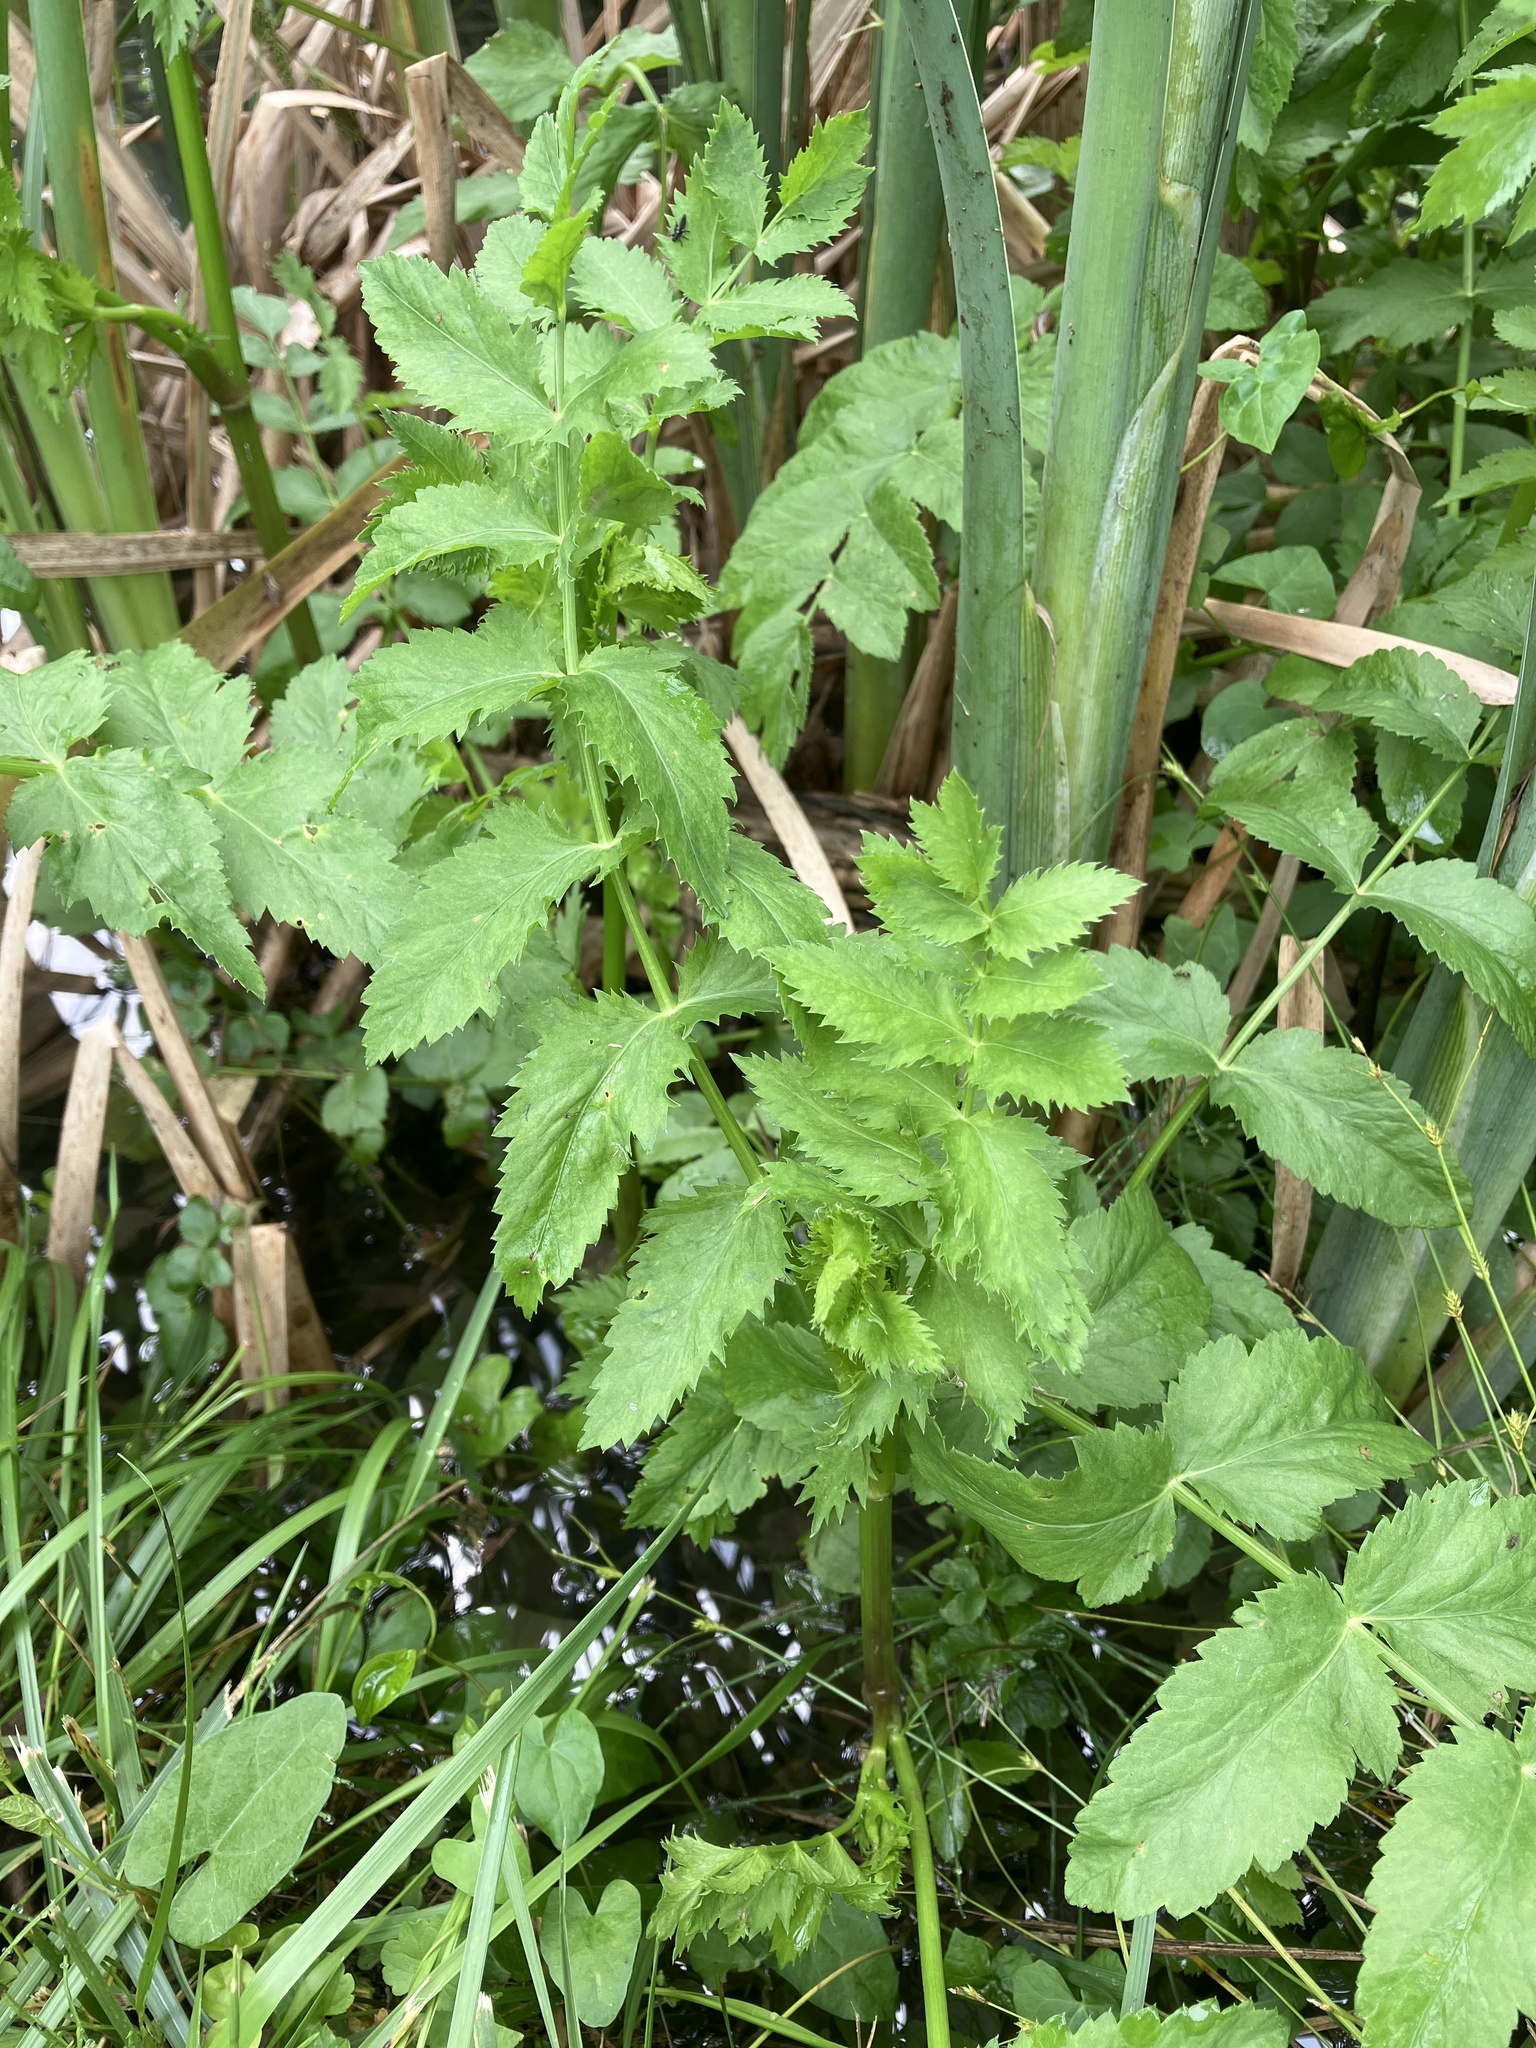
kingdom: Plantae
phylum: Tracheophyta
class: Magnoliopsida
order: Apiales
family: Apiaceae
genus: Berula
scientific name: Berula erecta
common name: Lesser water-parsnip
